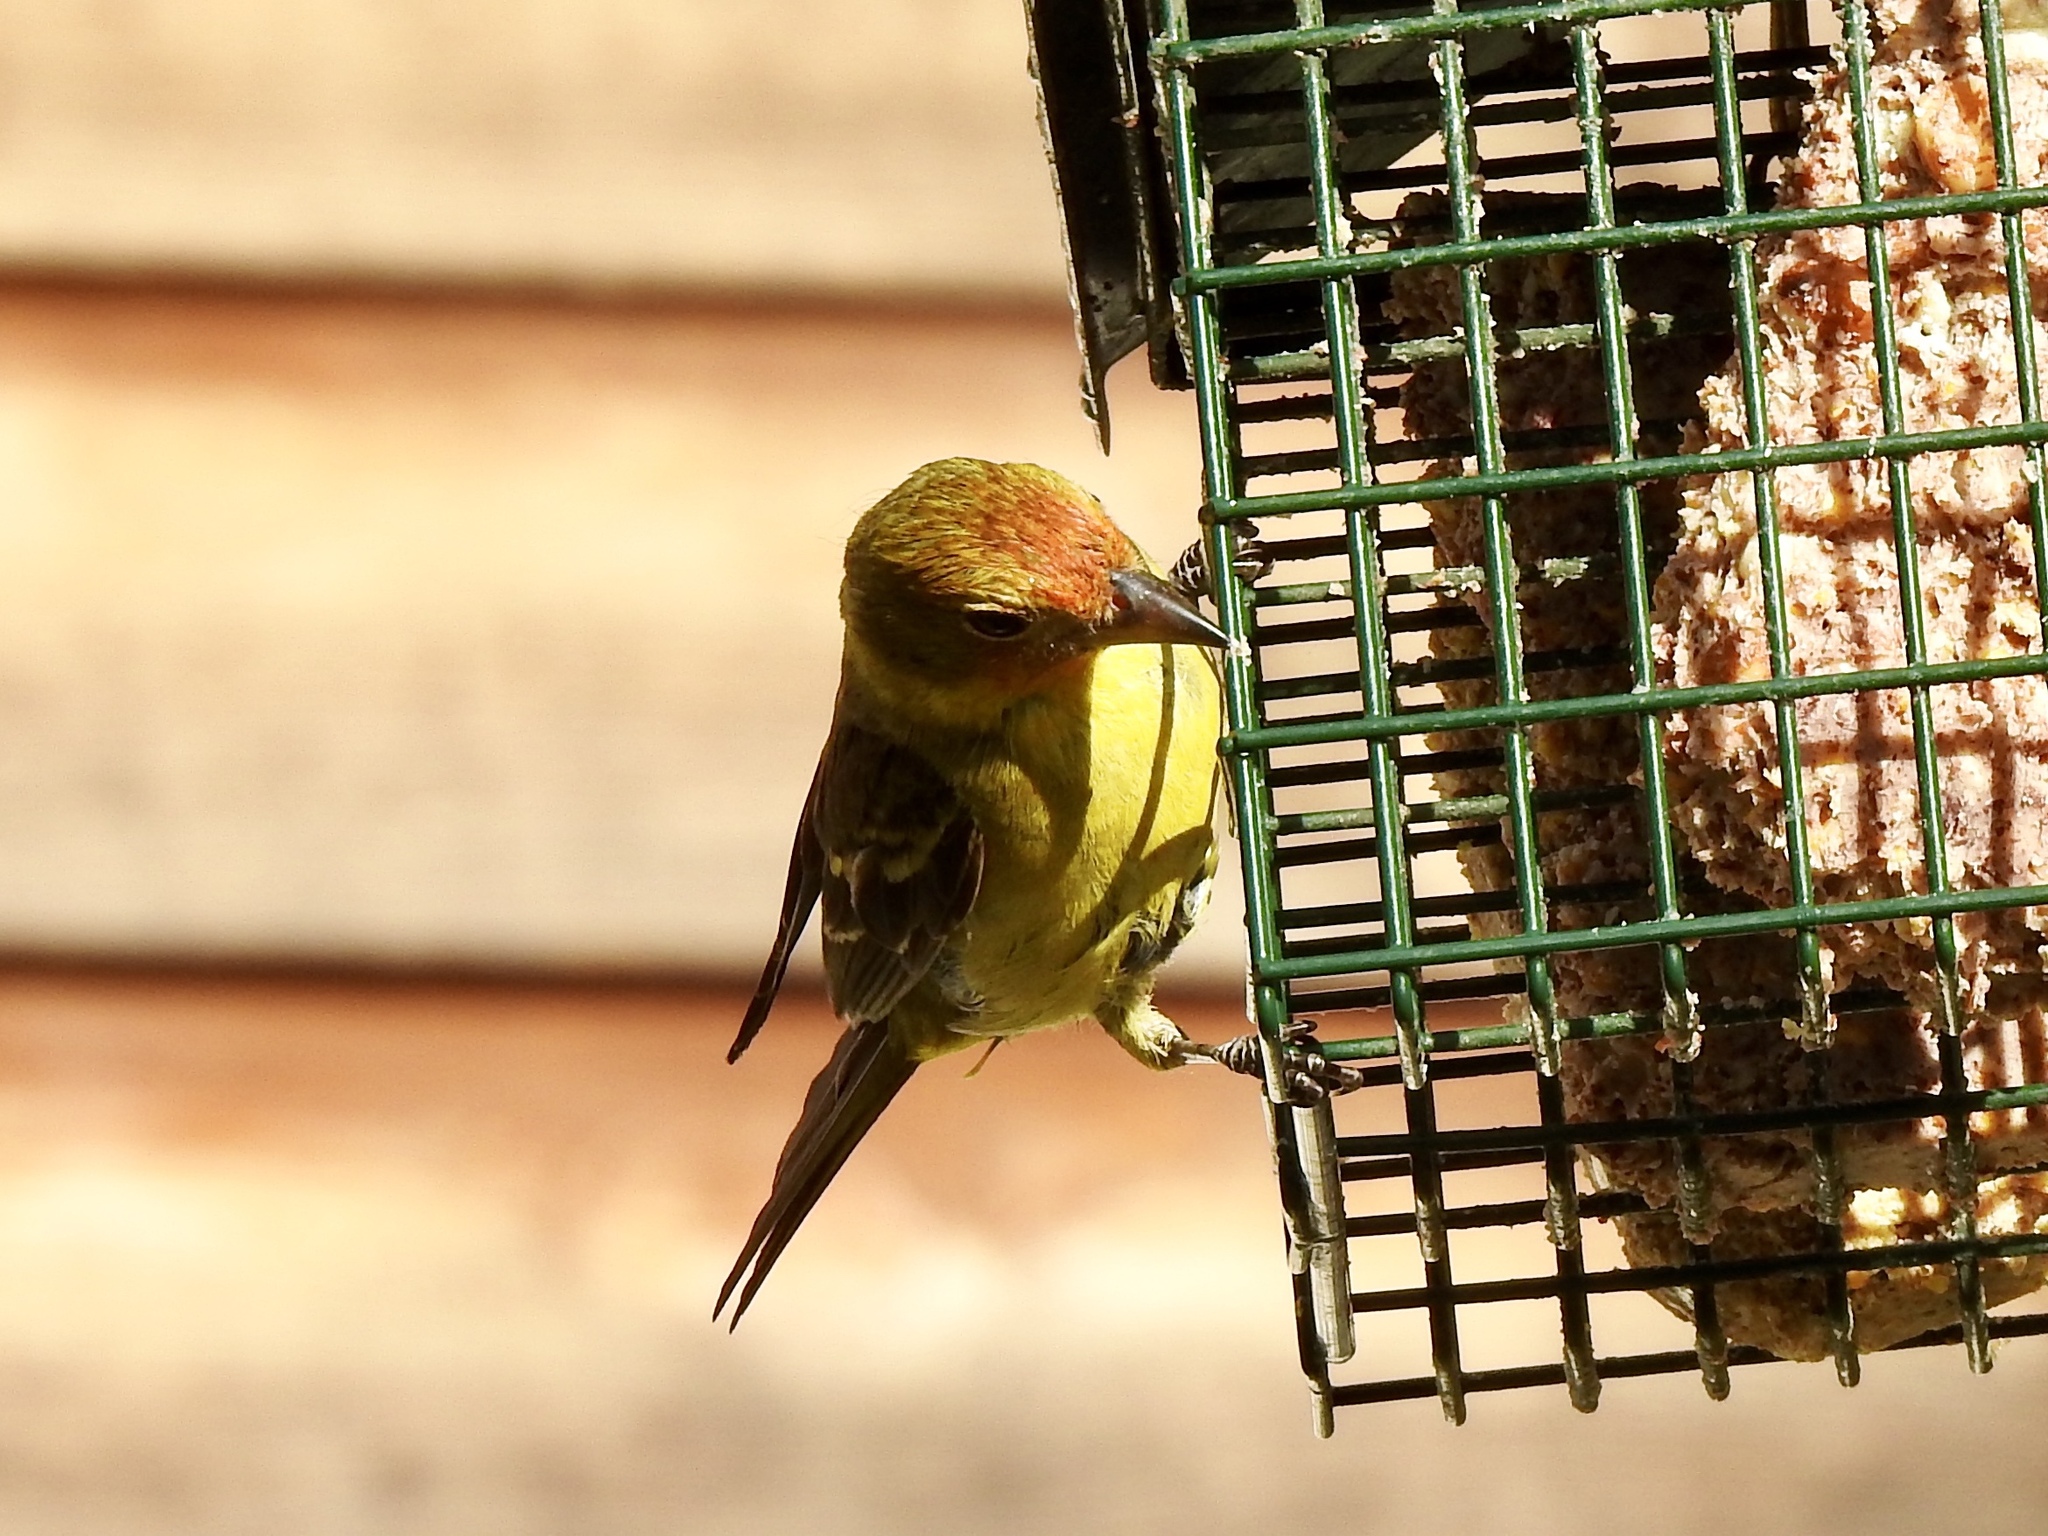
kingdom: Animalia
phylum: Chordata
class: Aves
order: Passeriformes
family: Cardinalidae
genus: Piranga
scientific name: Piranga ludoviciana
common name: Western tanager
